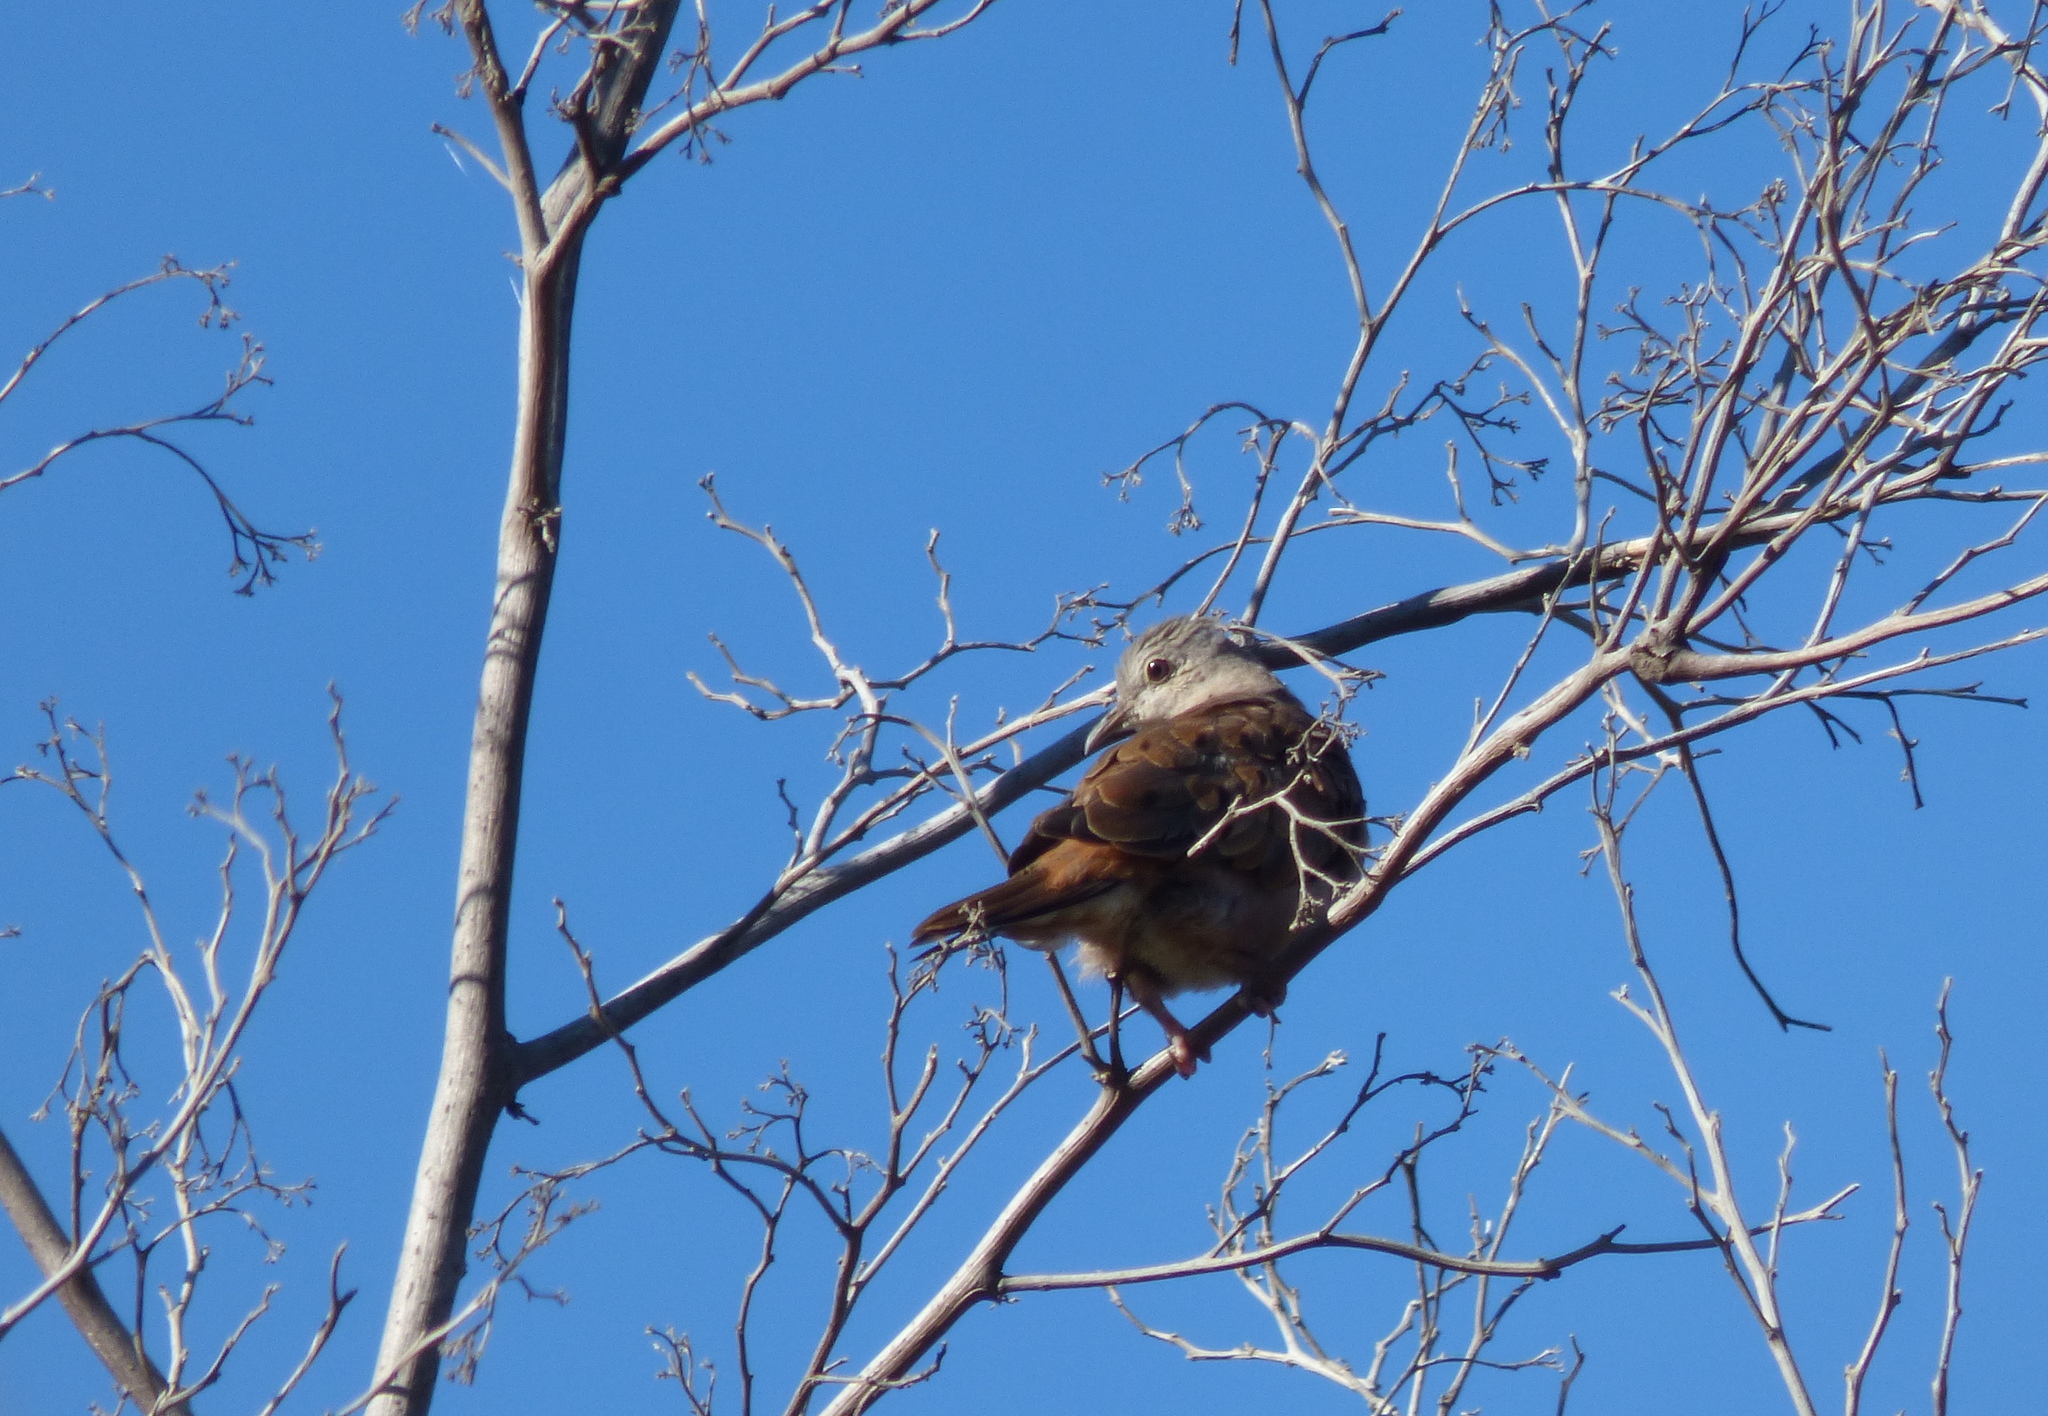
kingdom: Animalia
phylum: Chordata
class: Aves
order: Columbiformes
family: Columbidae
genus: Columbina
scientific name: Columbina talpacoti
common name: Ruddy ground dove
